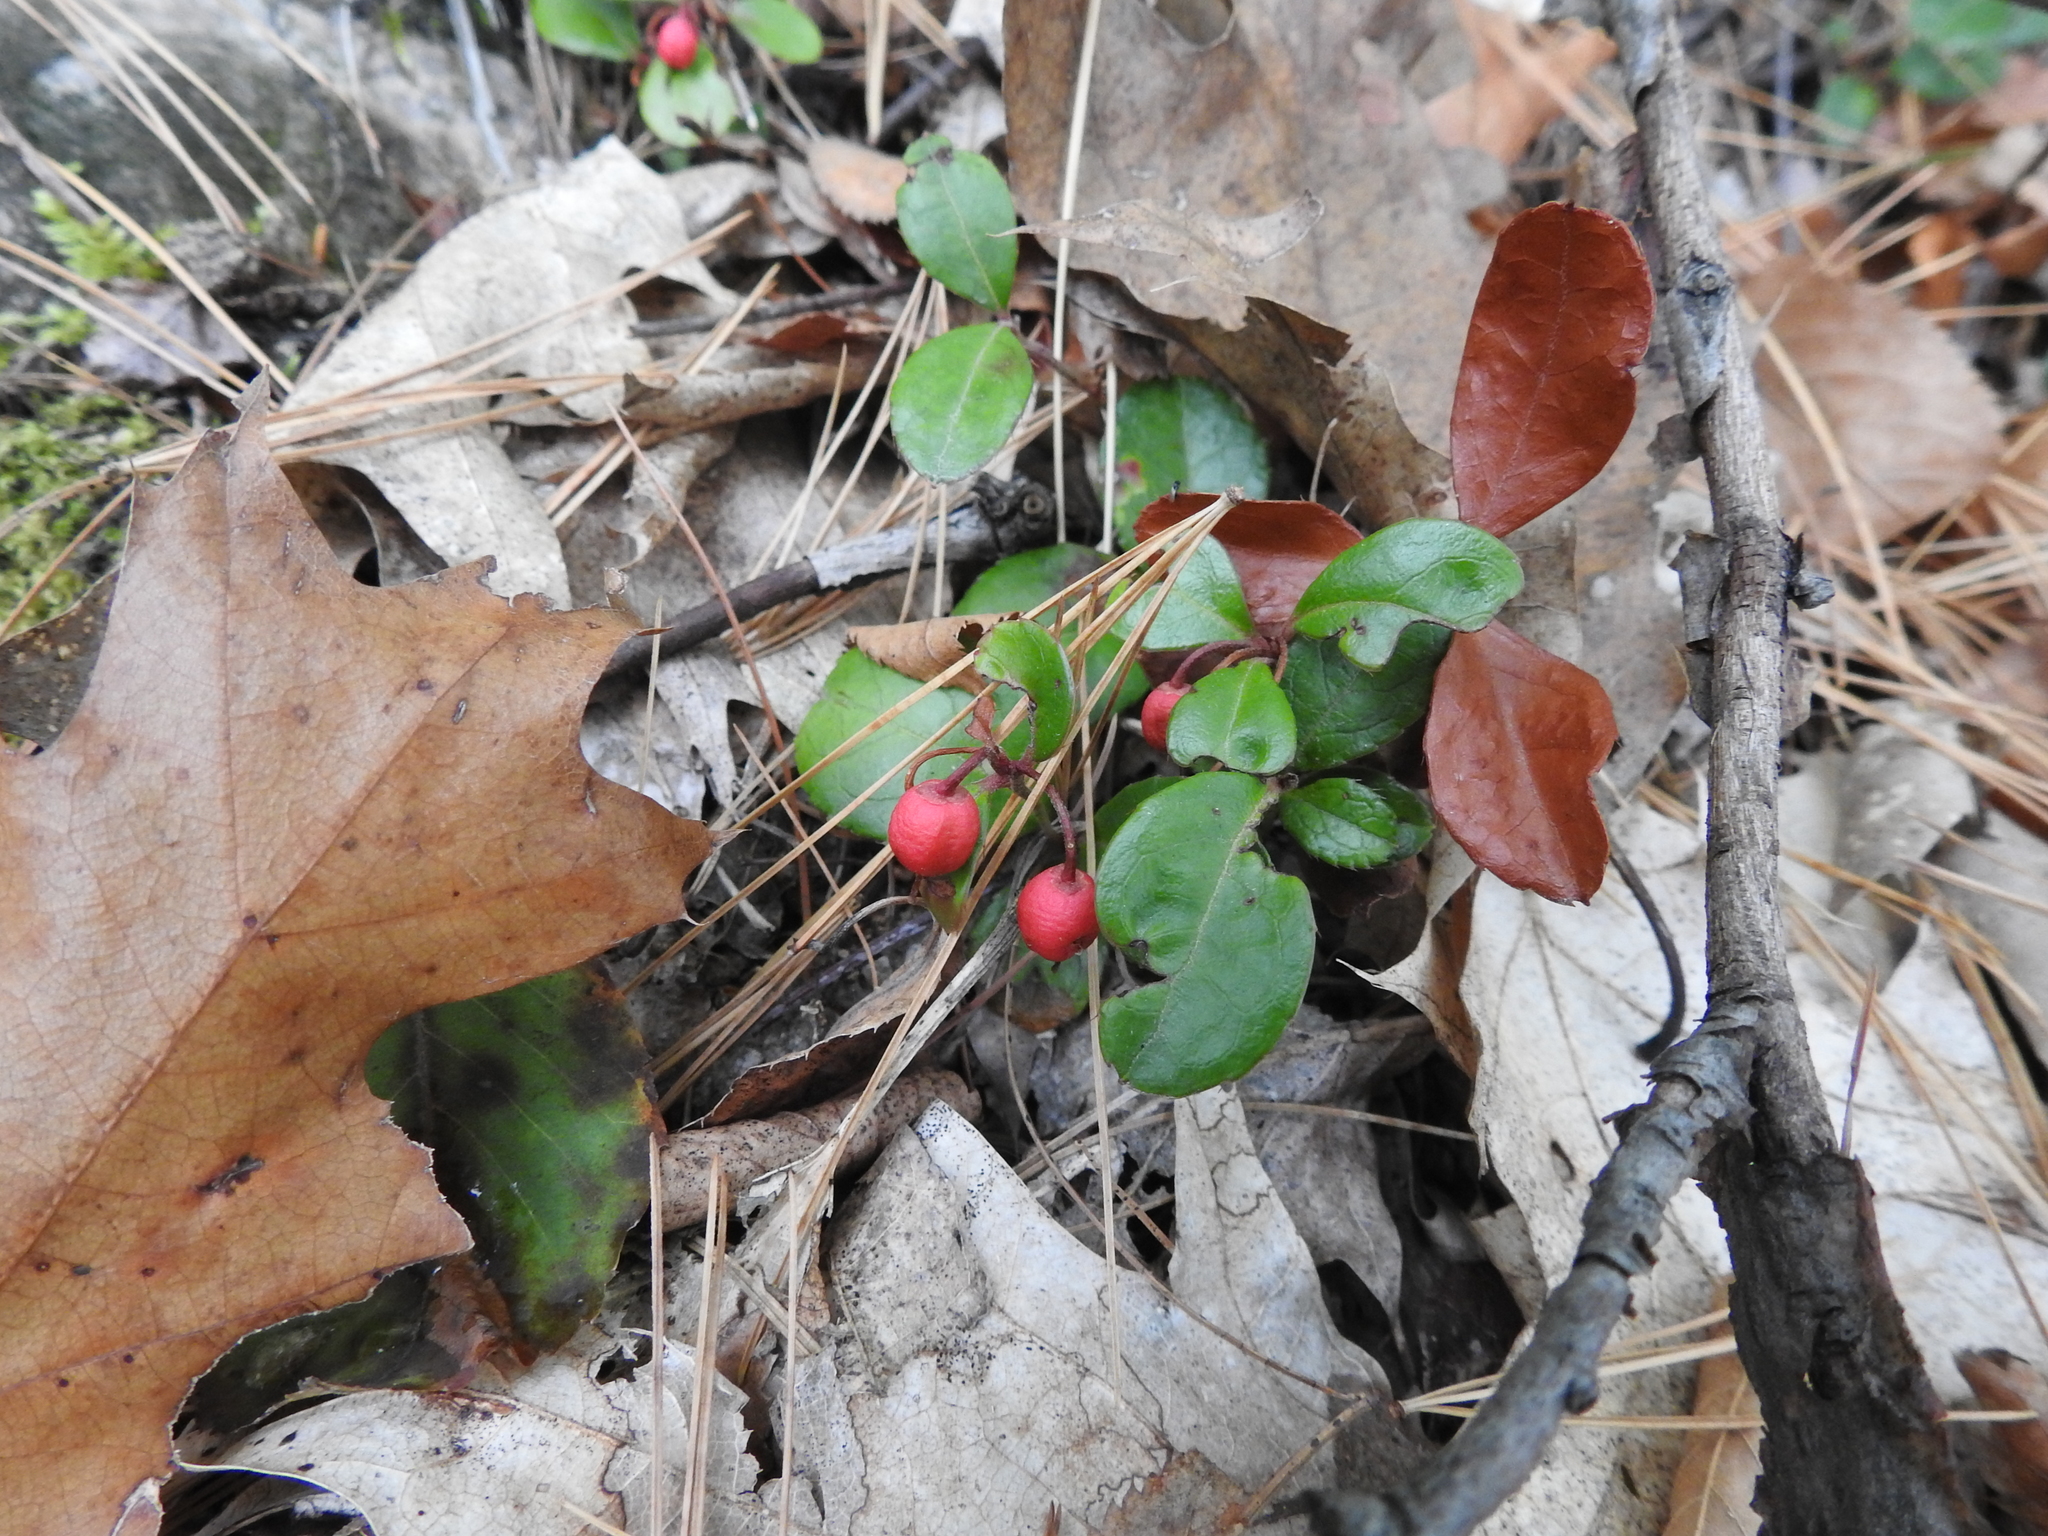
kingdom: Plantae
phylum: Tracheophyta
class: Magnoliopsida
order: Ericales
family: Ericaceae
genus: Gaultheria
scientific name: Gaultheria procumbens
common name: Checkerberry
